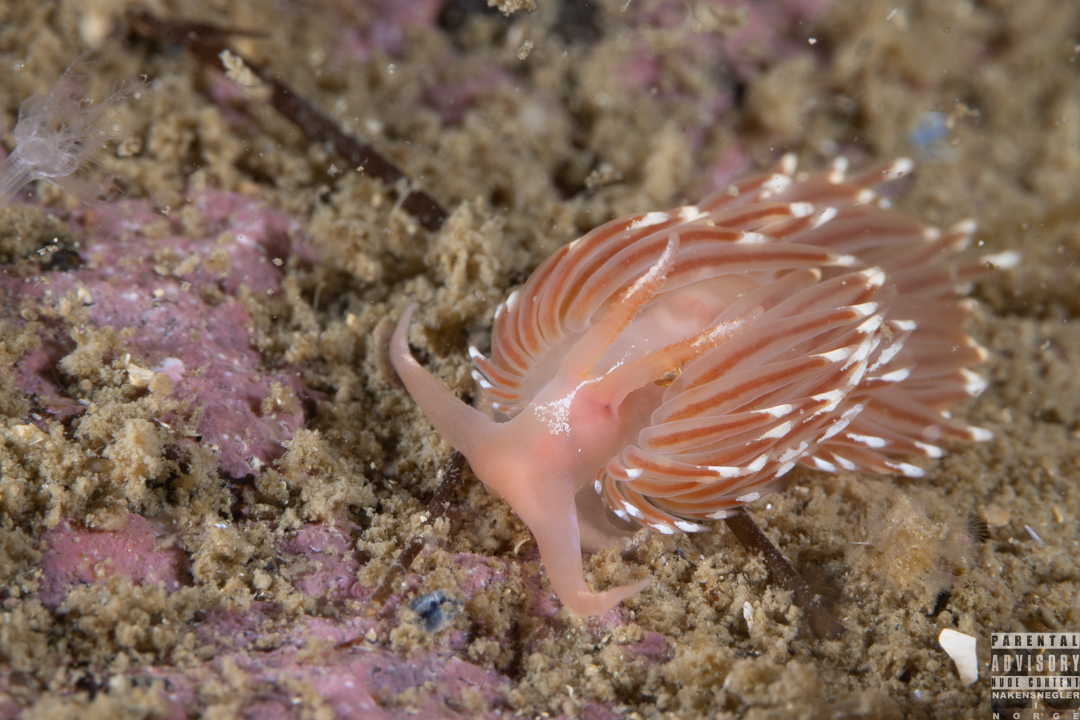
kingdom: Animalia
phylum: Mollusca
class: Gastropoda
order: Nudibranchia
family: Facelinidae
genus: Facelina
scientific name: Facelina bostoniensis
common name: Boston facelina
